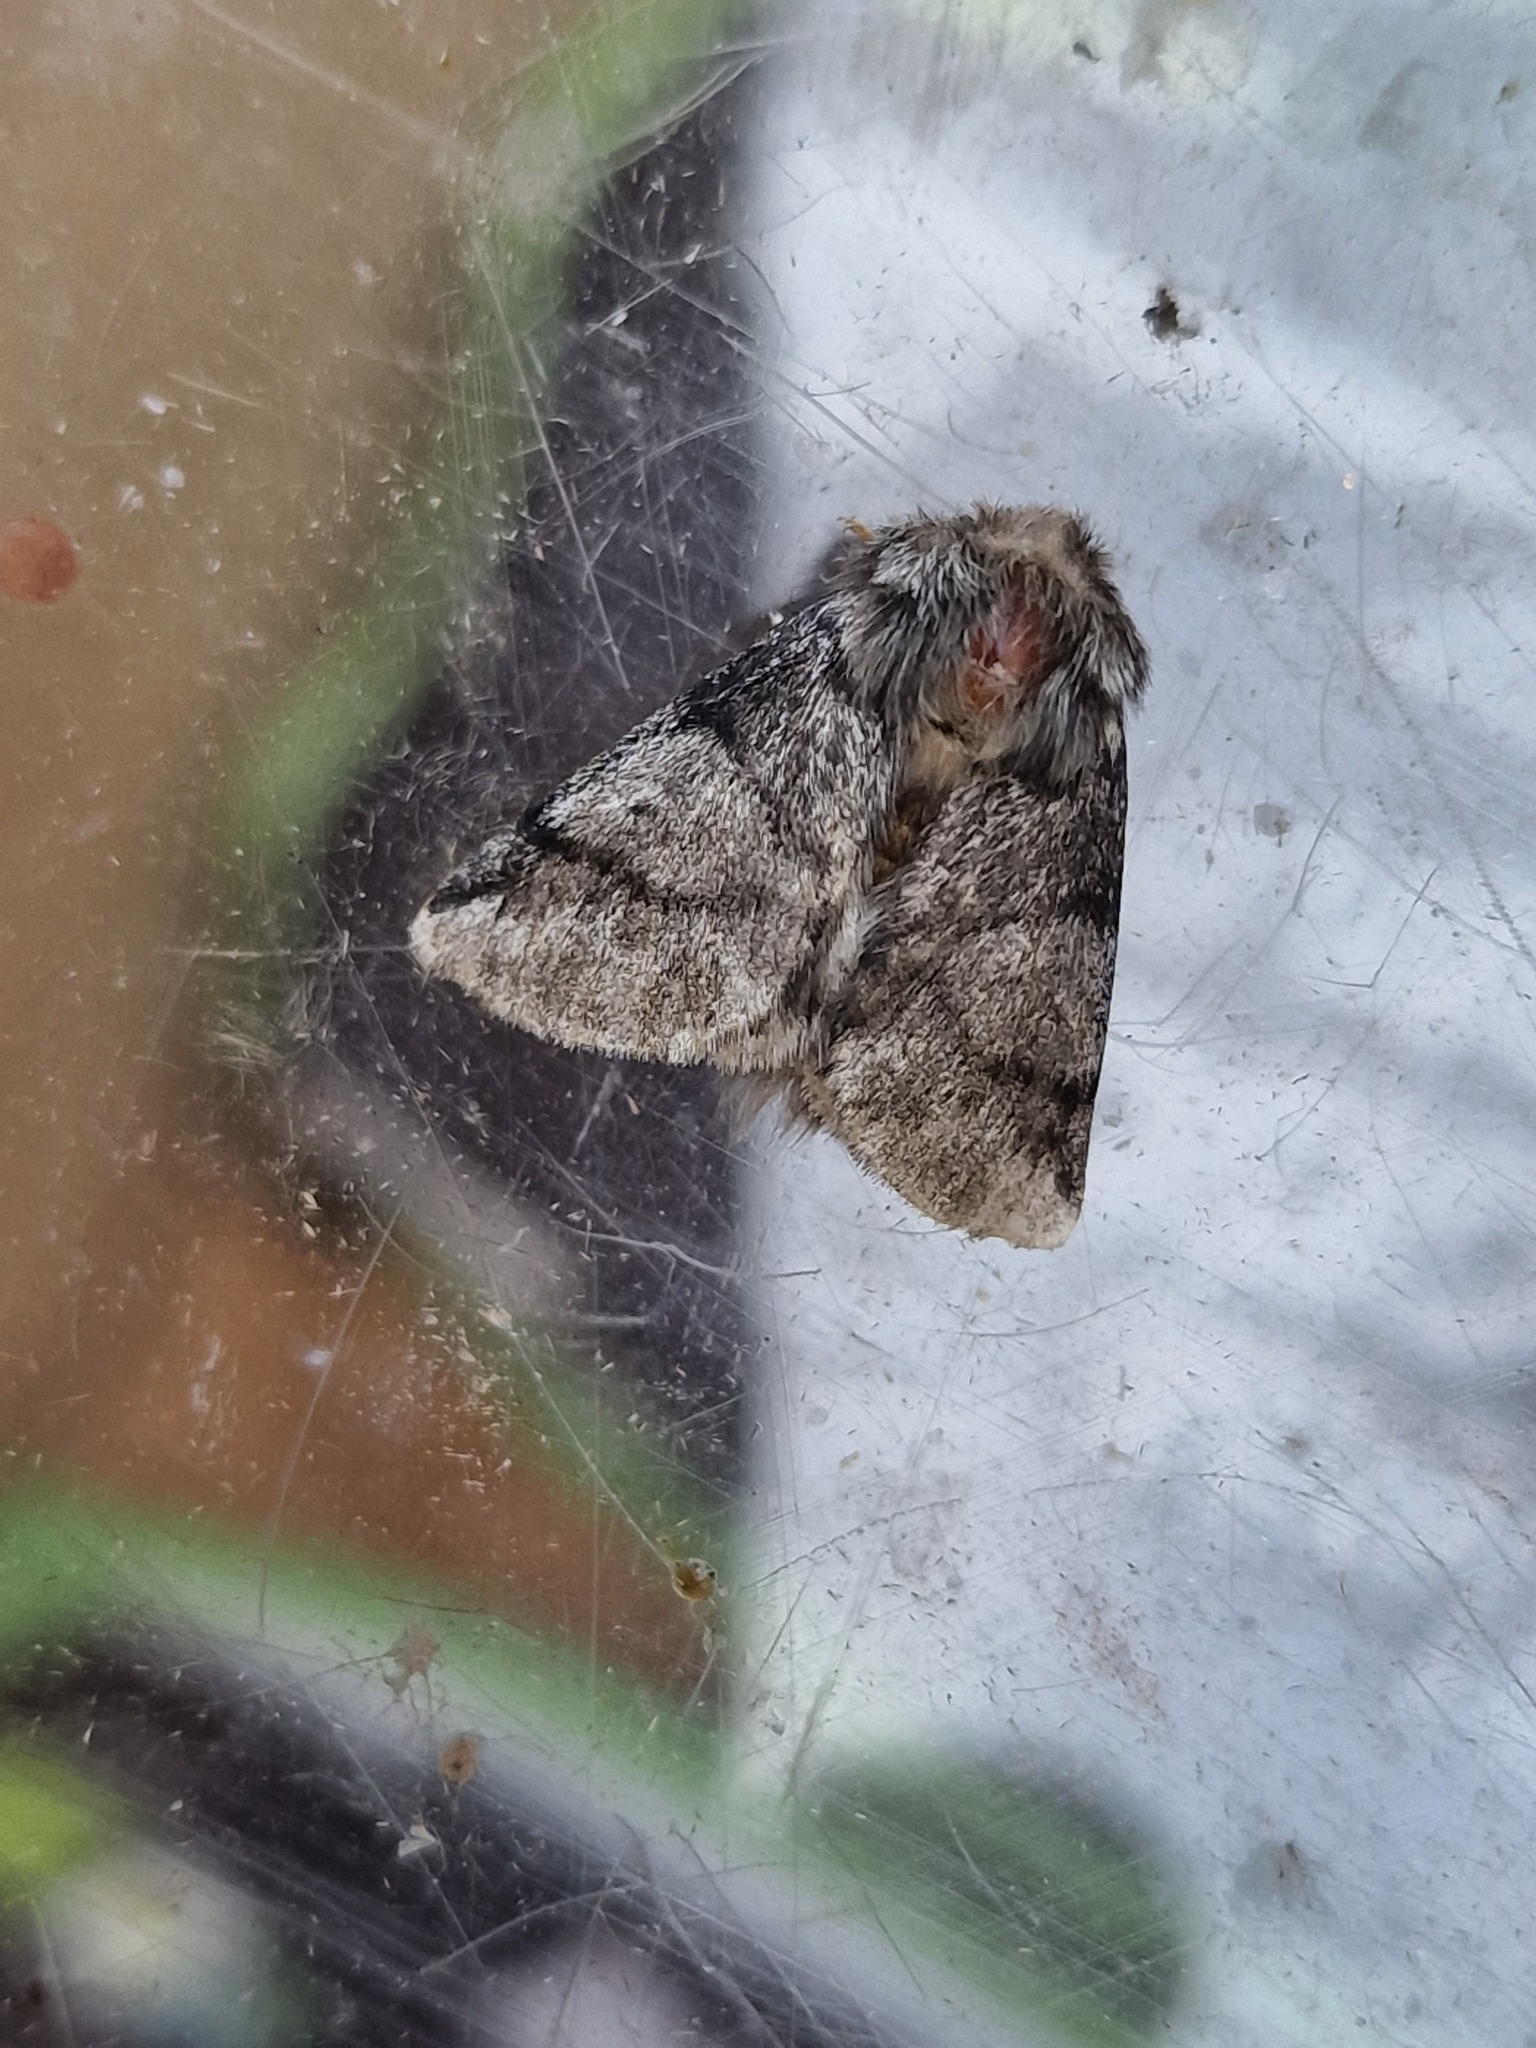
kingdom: Animalia
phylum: Arthropoda
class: Insecta
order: Lepidoptera
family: Notodontidae
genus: Thaumetopoea
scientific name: Thaumetopoea processionea
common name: Oak processionea
